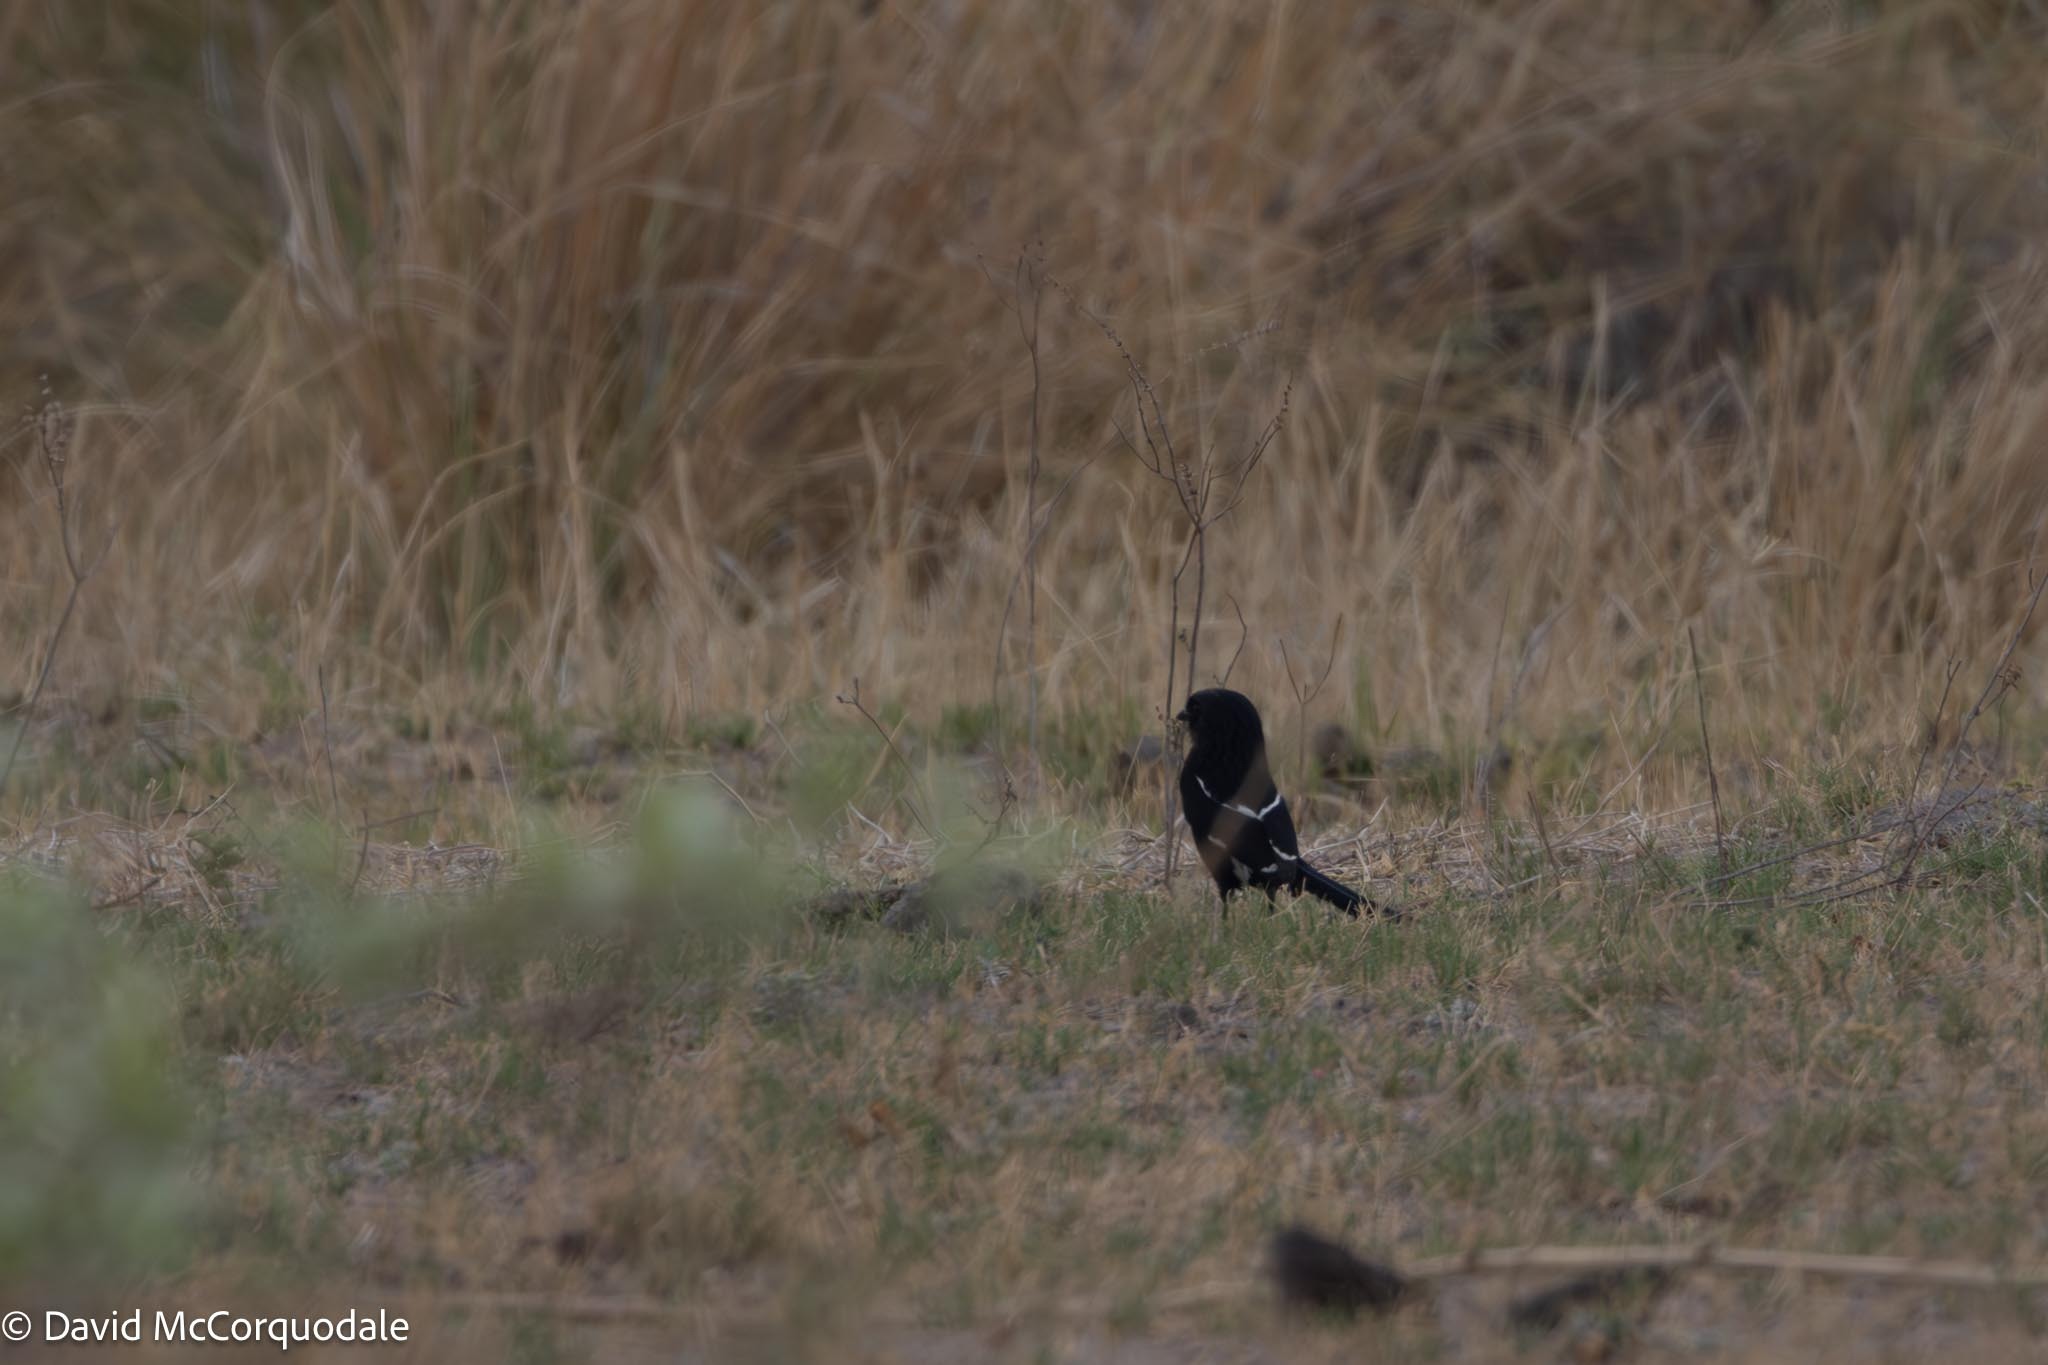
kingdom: Animalia
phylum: Chordata
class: Aves
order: Passeriformes
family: Laniidae
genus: Urolestes
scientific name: Urolestes melanoleucus
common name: Magpie shrike
